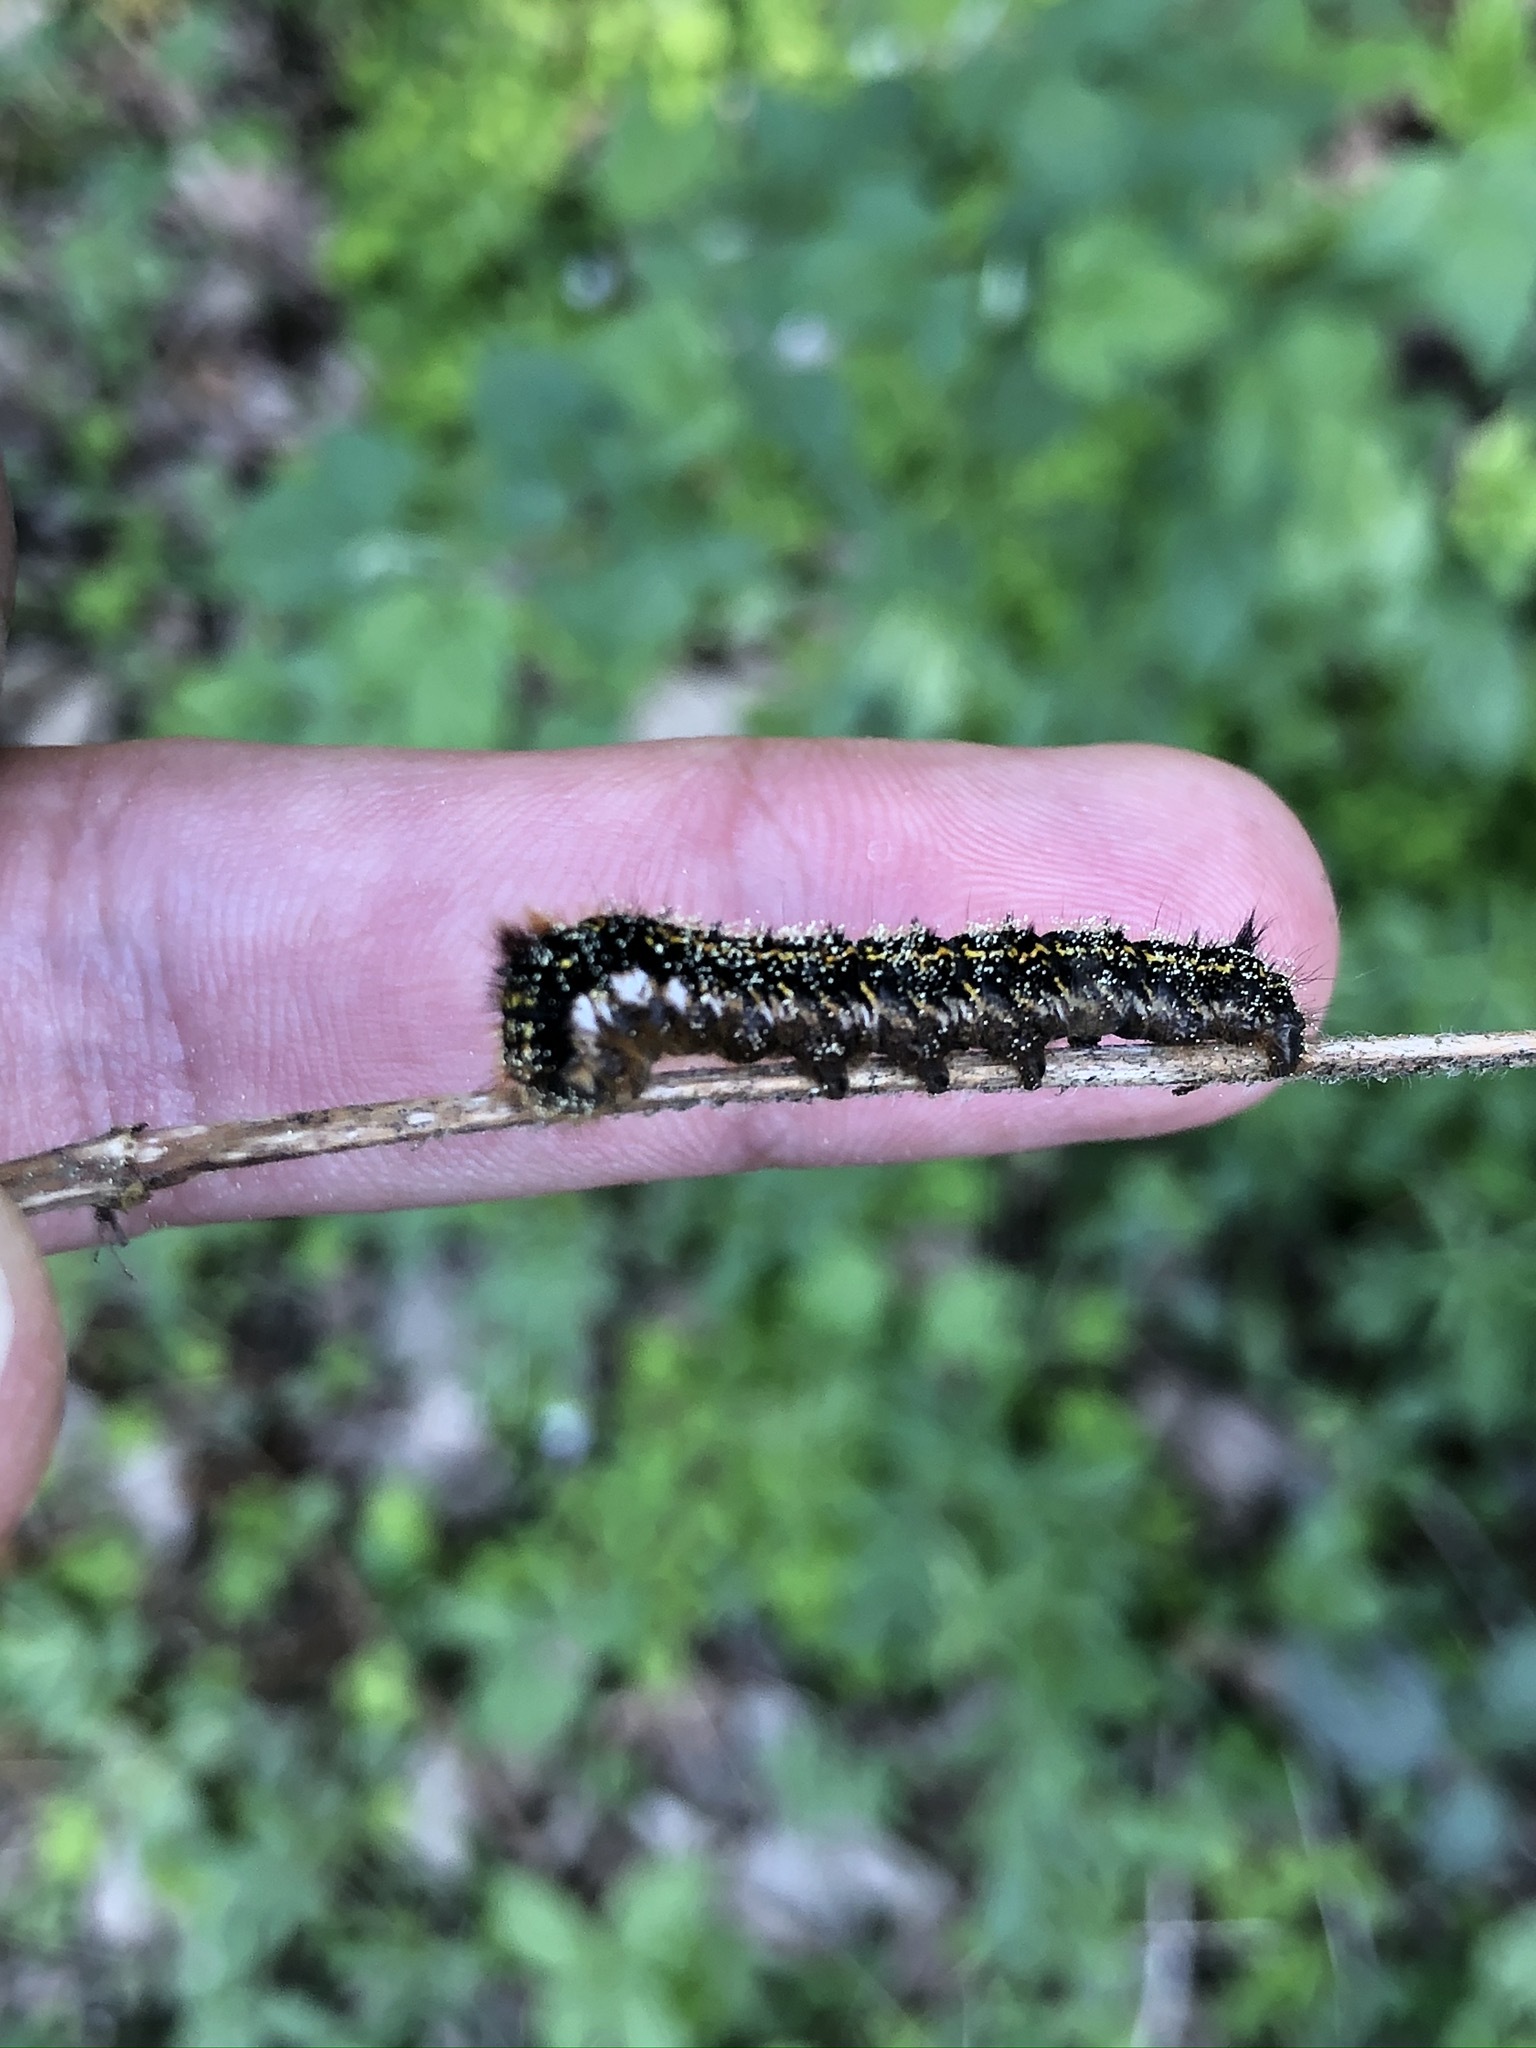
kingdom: Animalia
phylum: Arthropoda
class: Insecta
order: Lepidoptera
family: Lasiocampidae
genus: Euthrix
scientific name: Euthrix potatoria
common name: Drinker
